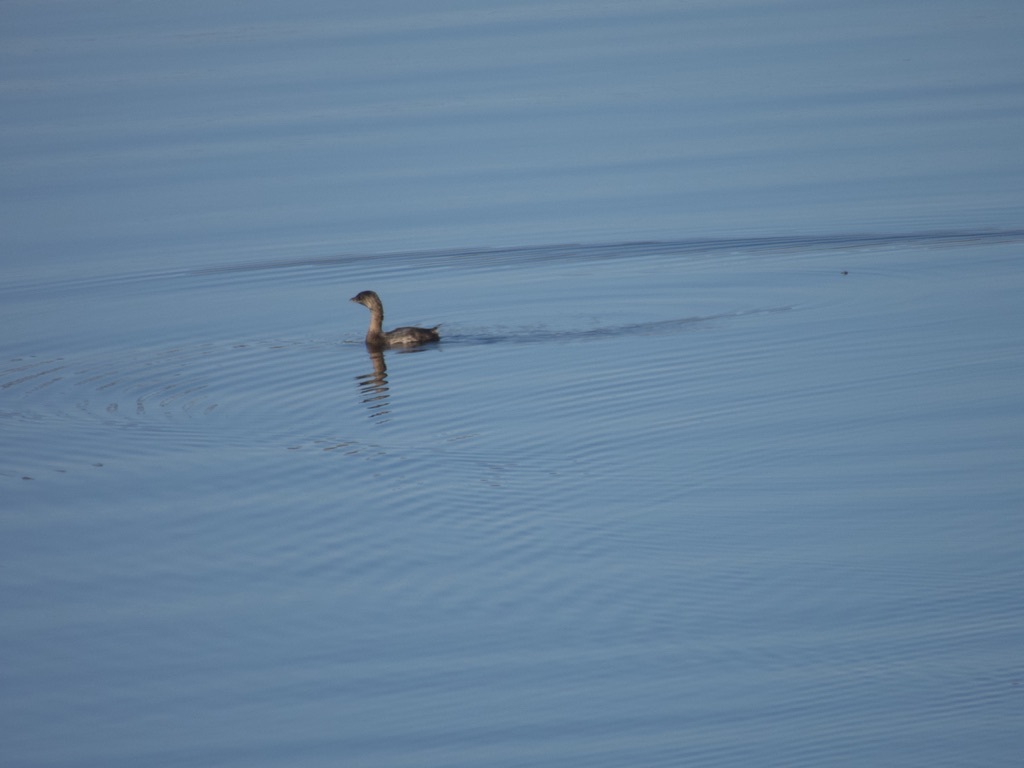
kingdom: Animalia
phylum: Chordata
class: Aves
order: Podicipediformes
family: Podicipedidae
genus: Podilymbus
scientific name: Podilymbus podiceps
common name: Pied-billed grebe
